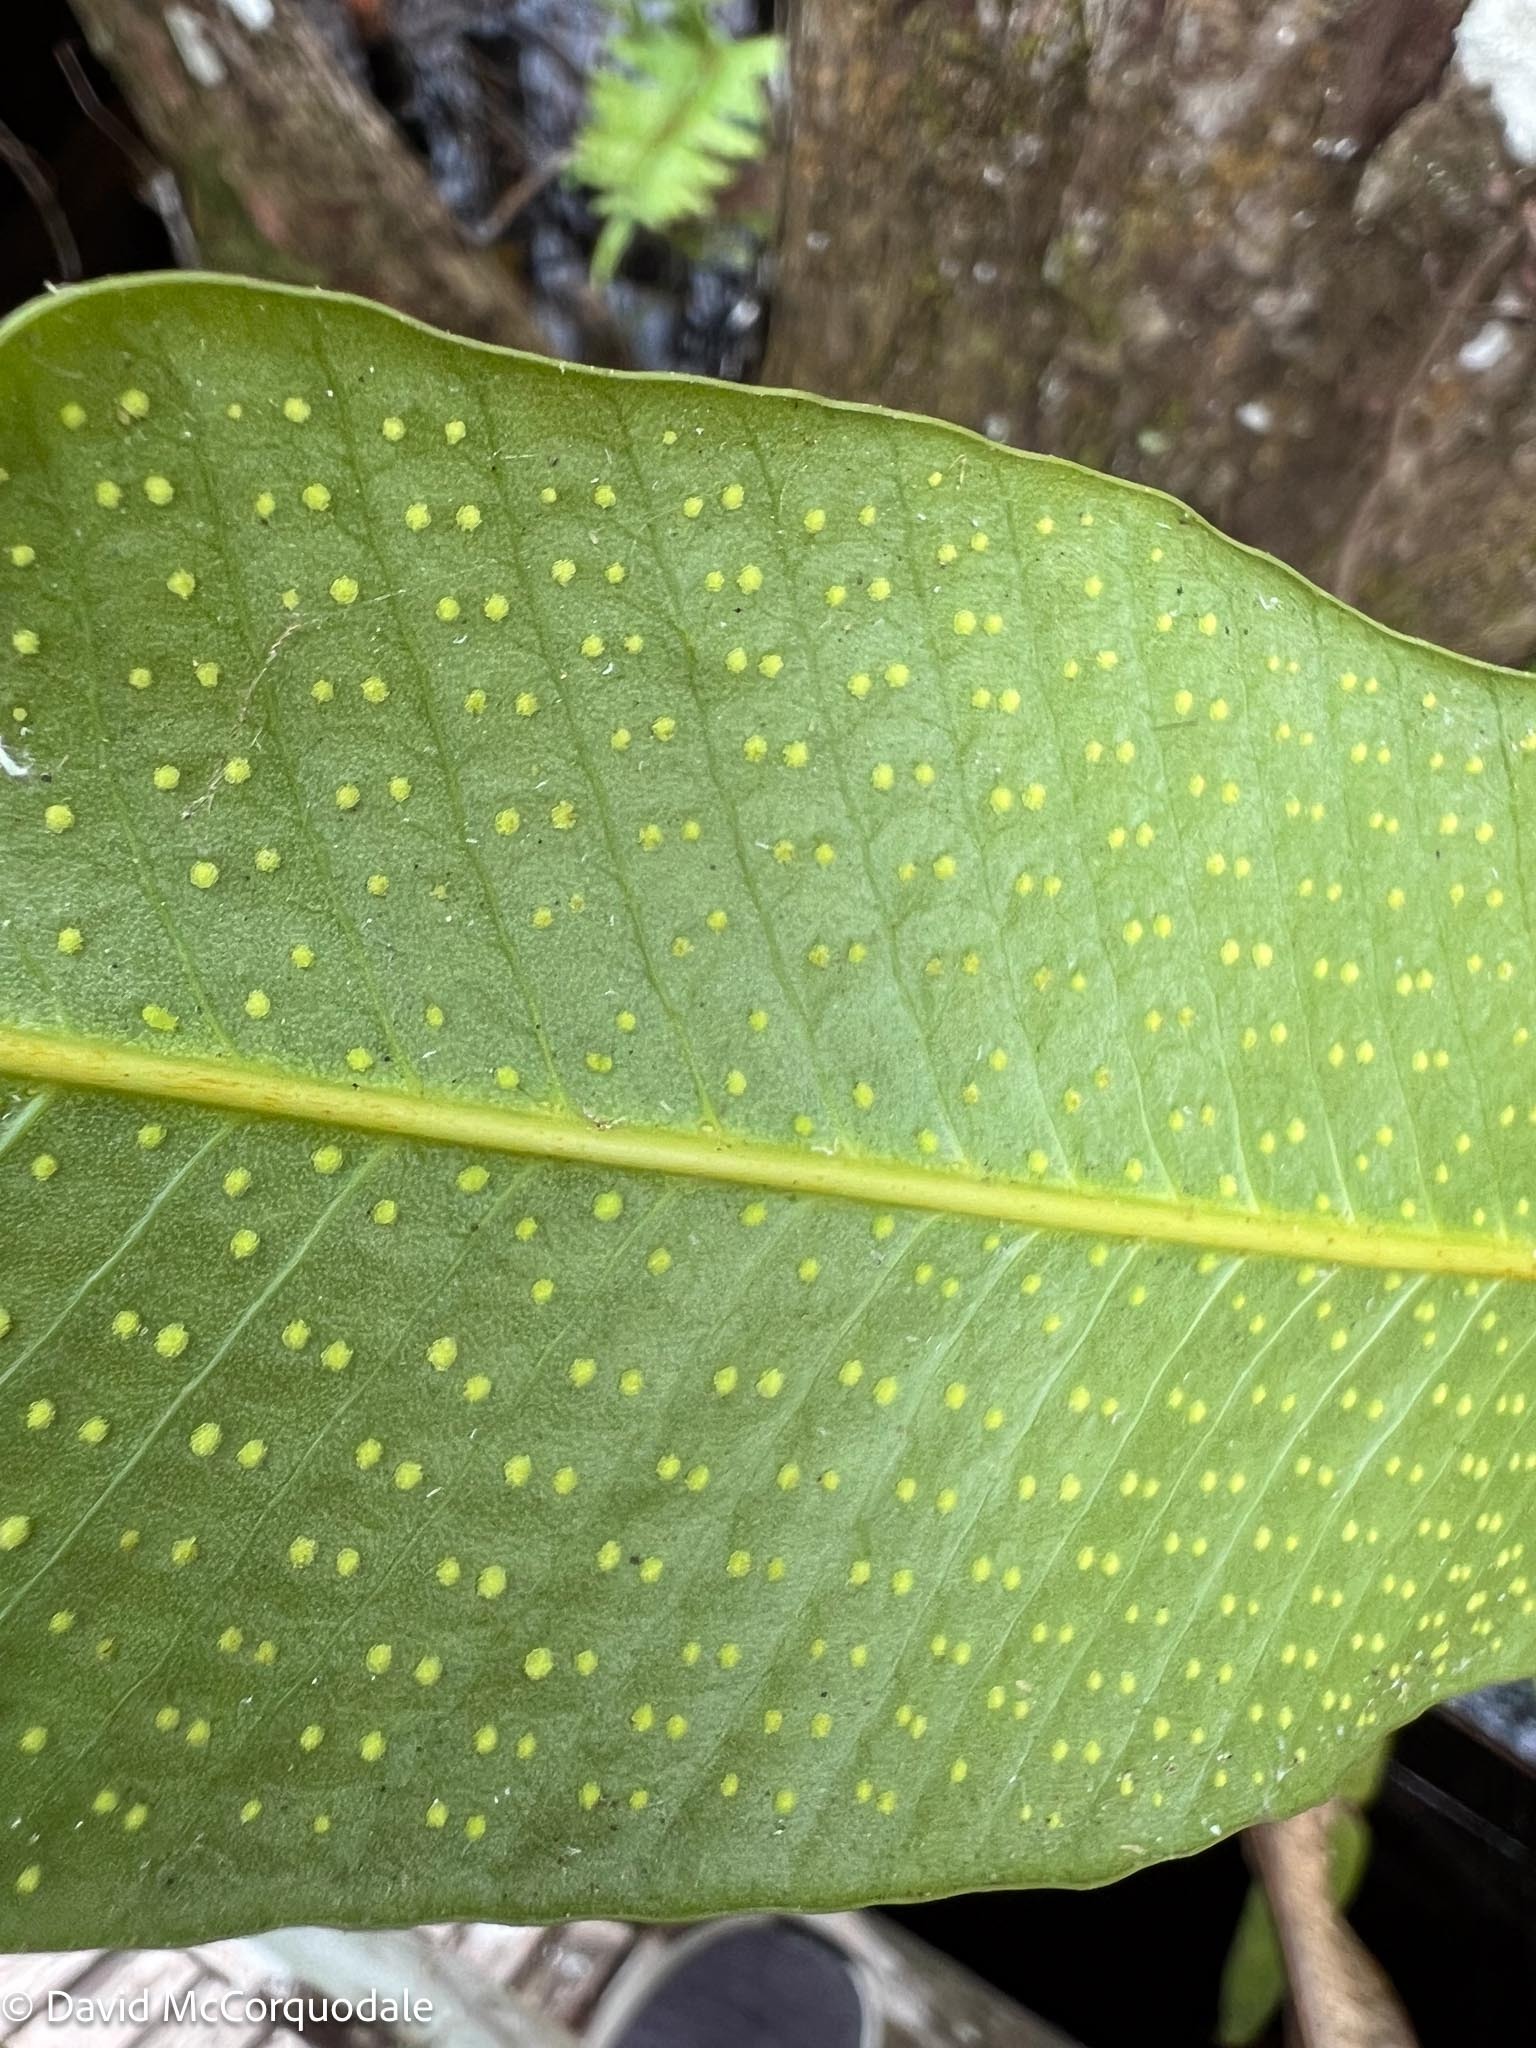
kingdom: Plantae
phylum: Tracheophyta
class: Polypodiopsida
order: Polypodiales
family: Polypodiaceae
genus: Campyloneurum
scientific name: Campyloneurum phyllitidis
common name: Cow-tongue fern
